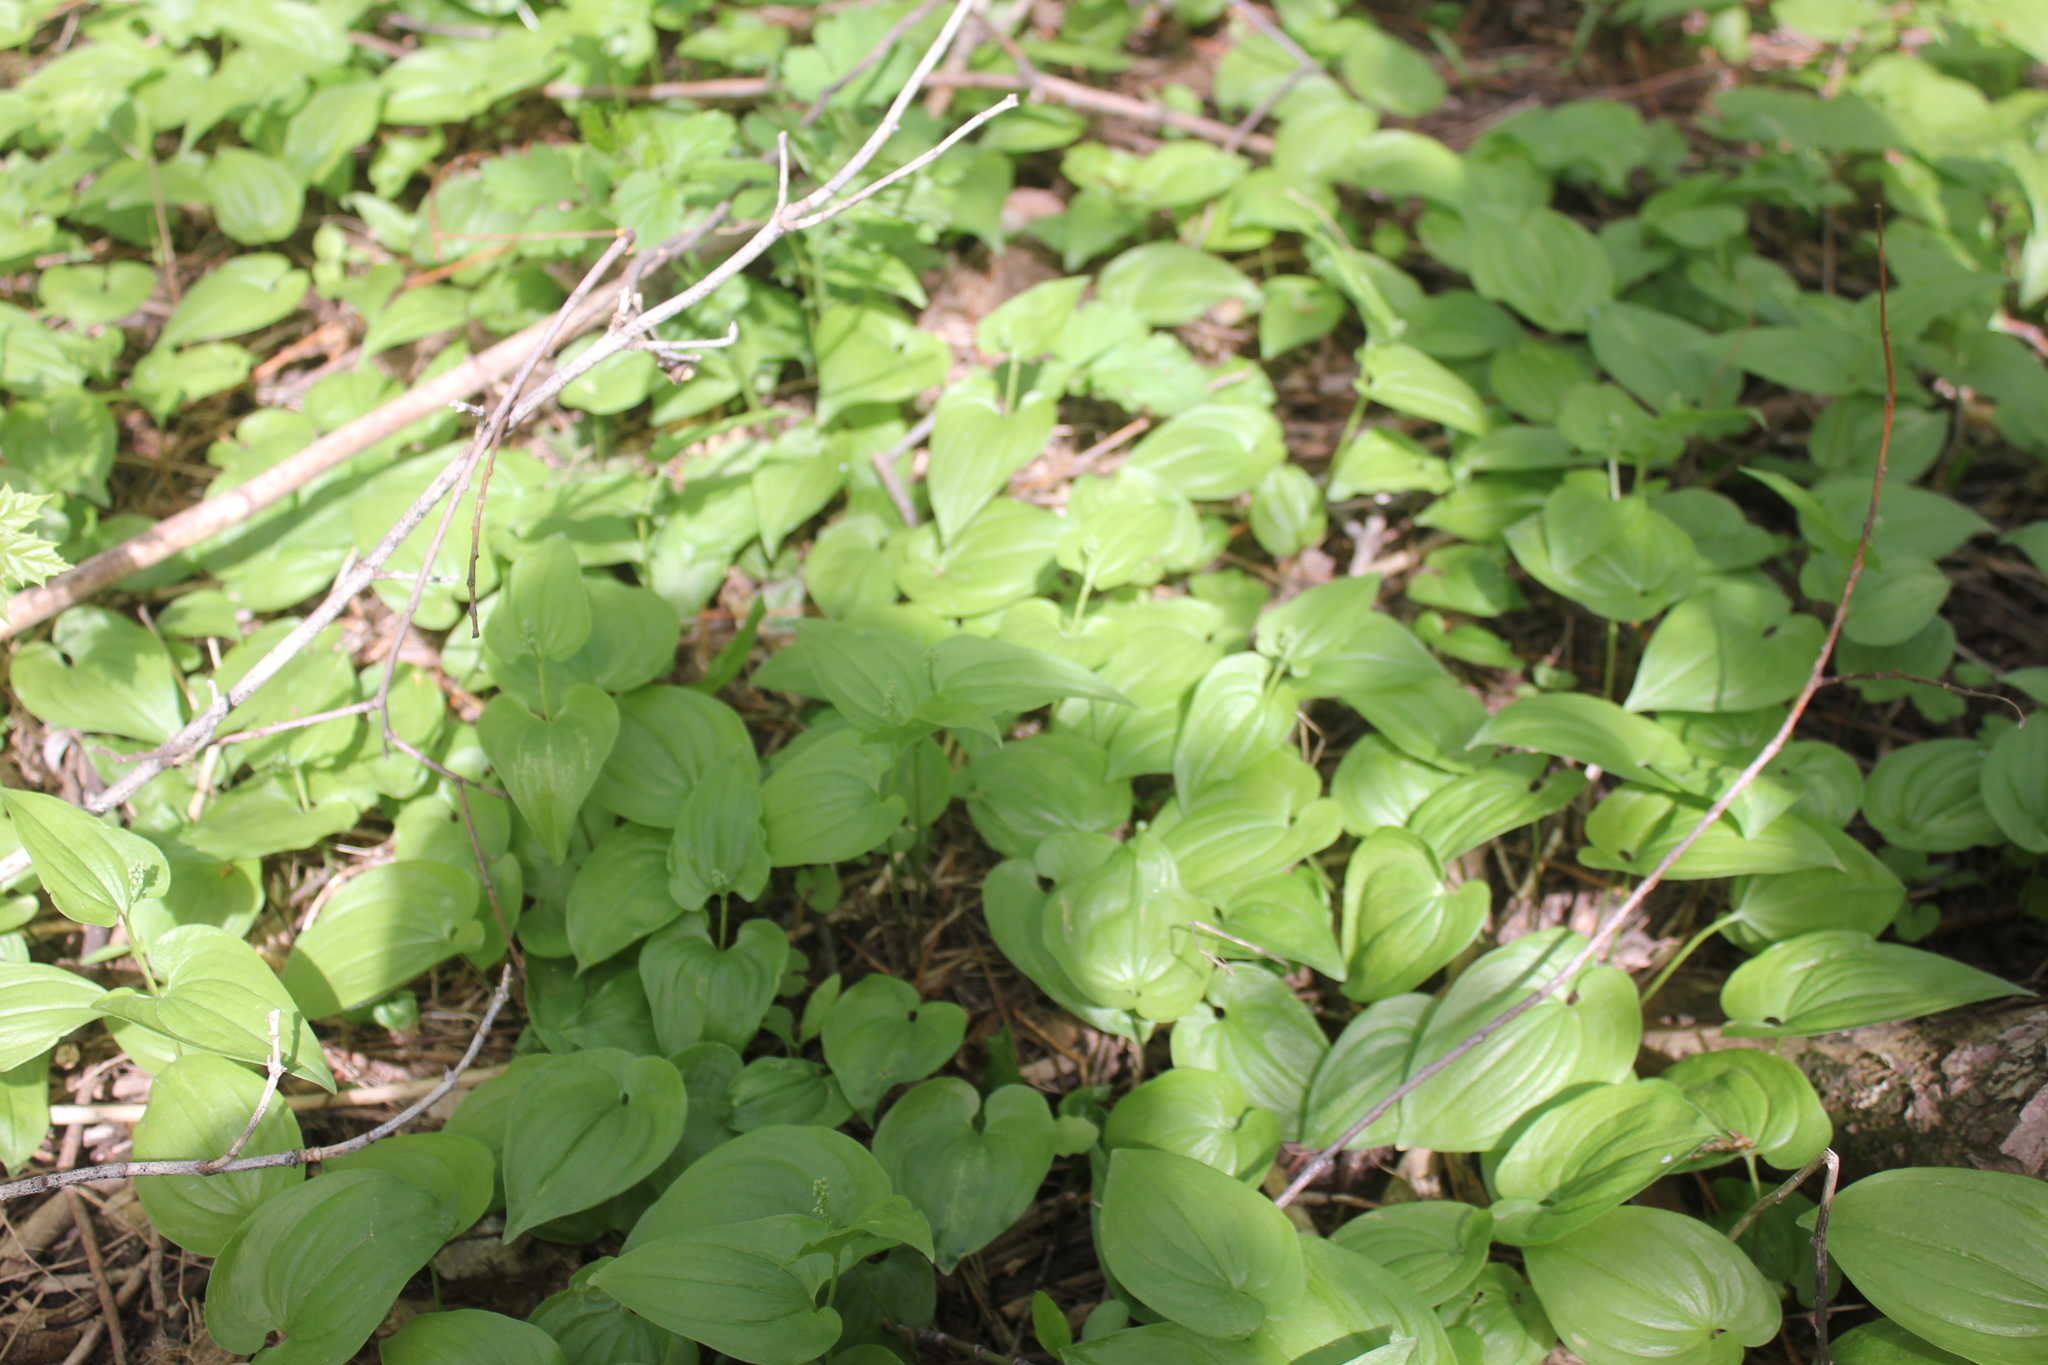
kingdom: Plantae
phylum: Tracheophyta
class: Liliopsida
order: Asparagales
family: Asparagaceae
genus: Maianthemum
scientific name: Maianthemum bifolium
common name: May lily
